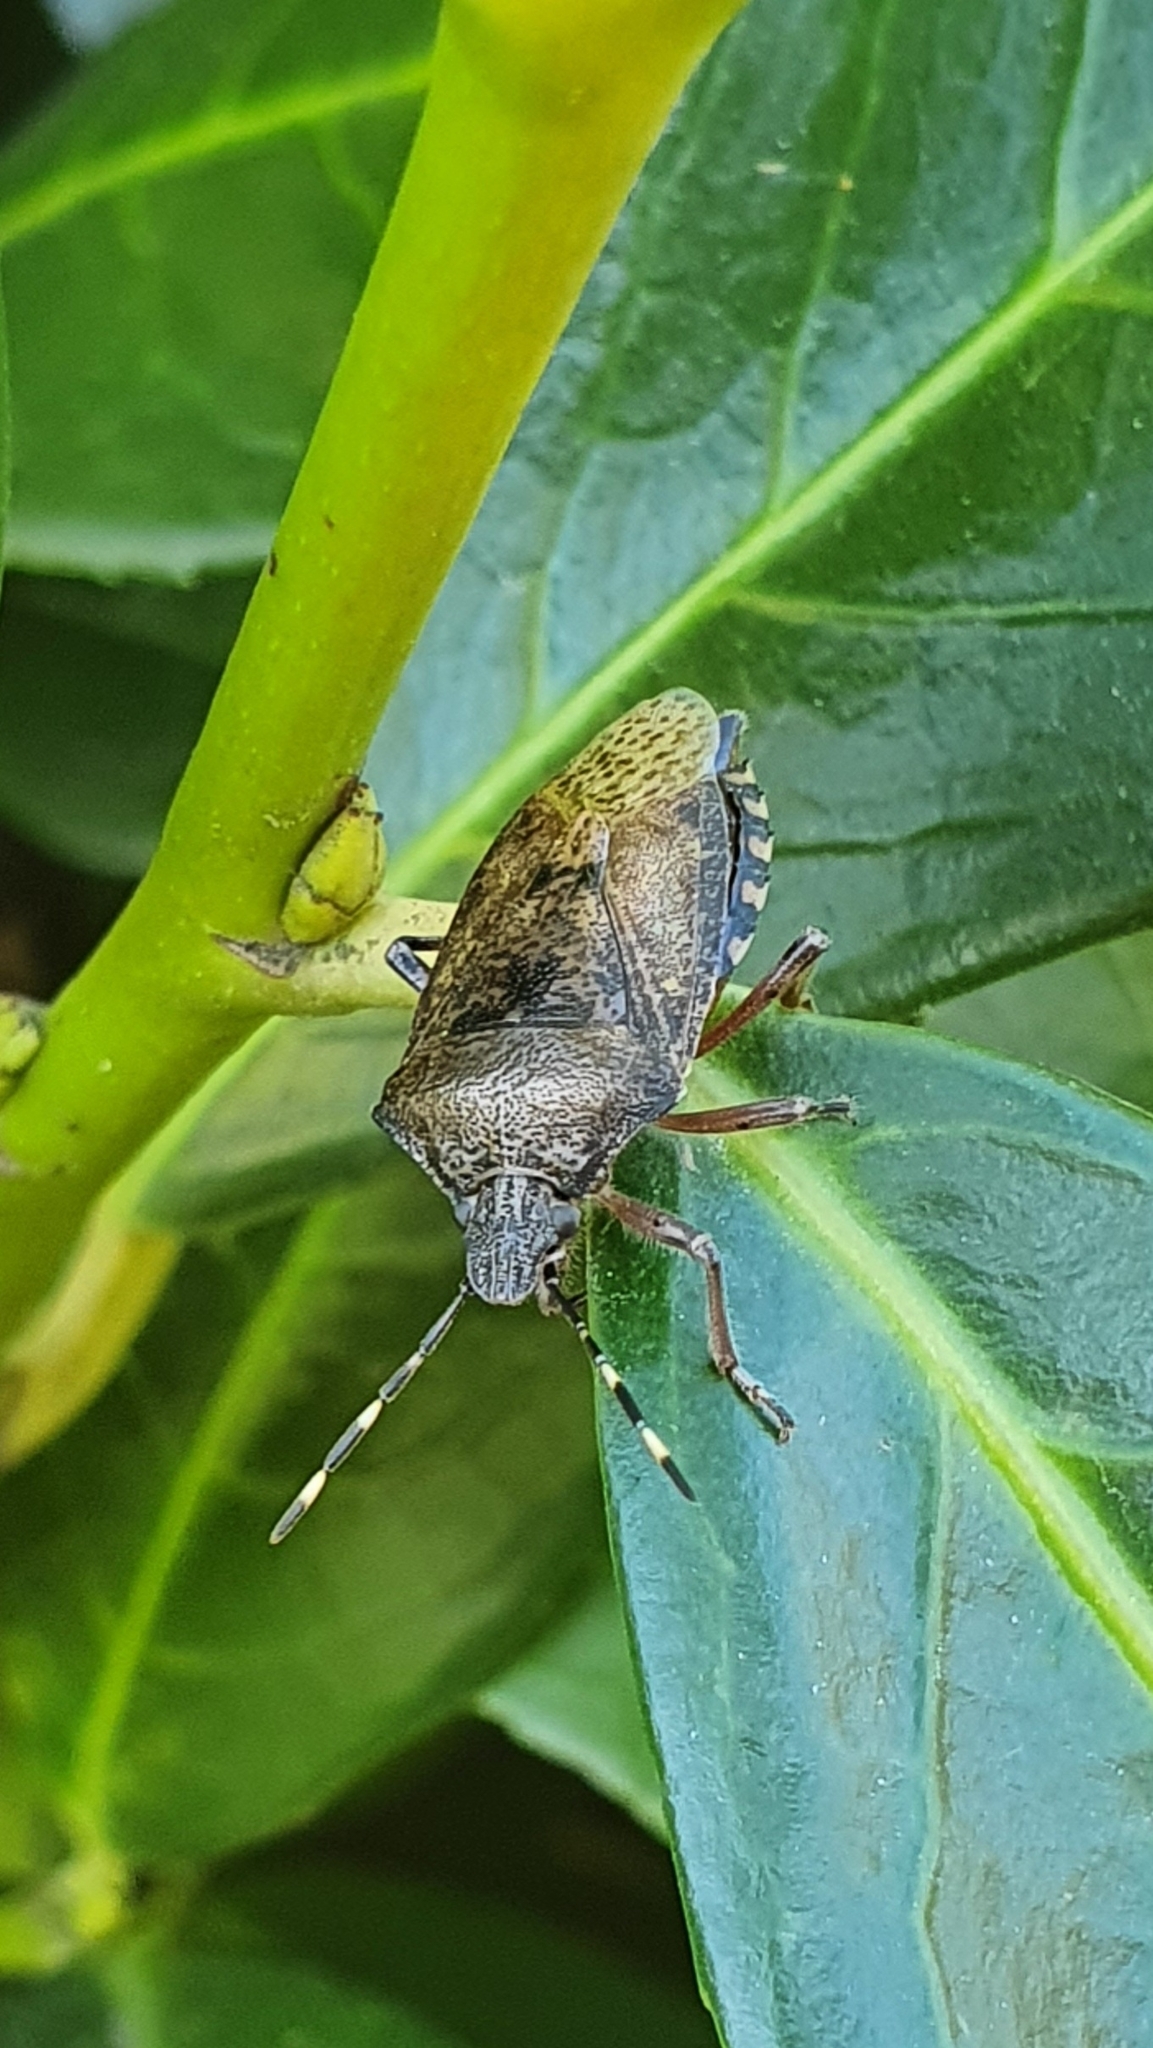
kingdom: Animalia
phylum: Arthropoda
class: Insecta
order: Hemiptera
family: Pentatomidae
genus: Rhaphigaster
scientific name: Rhaphigaster nebulosa
